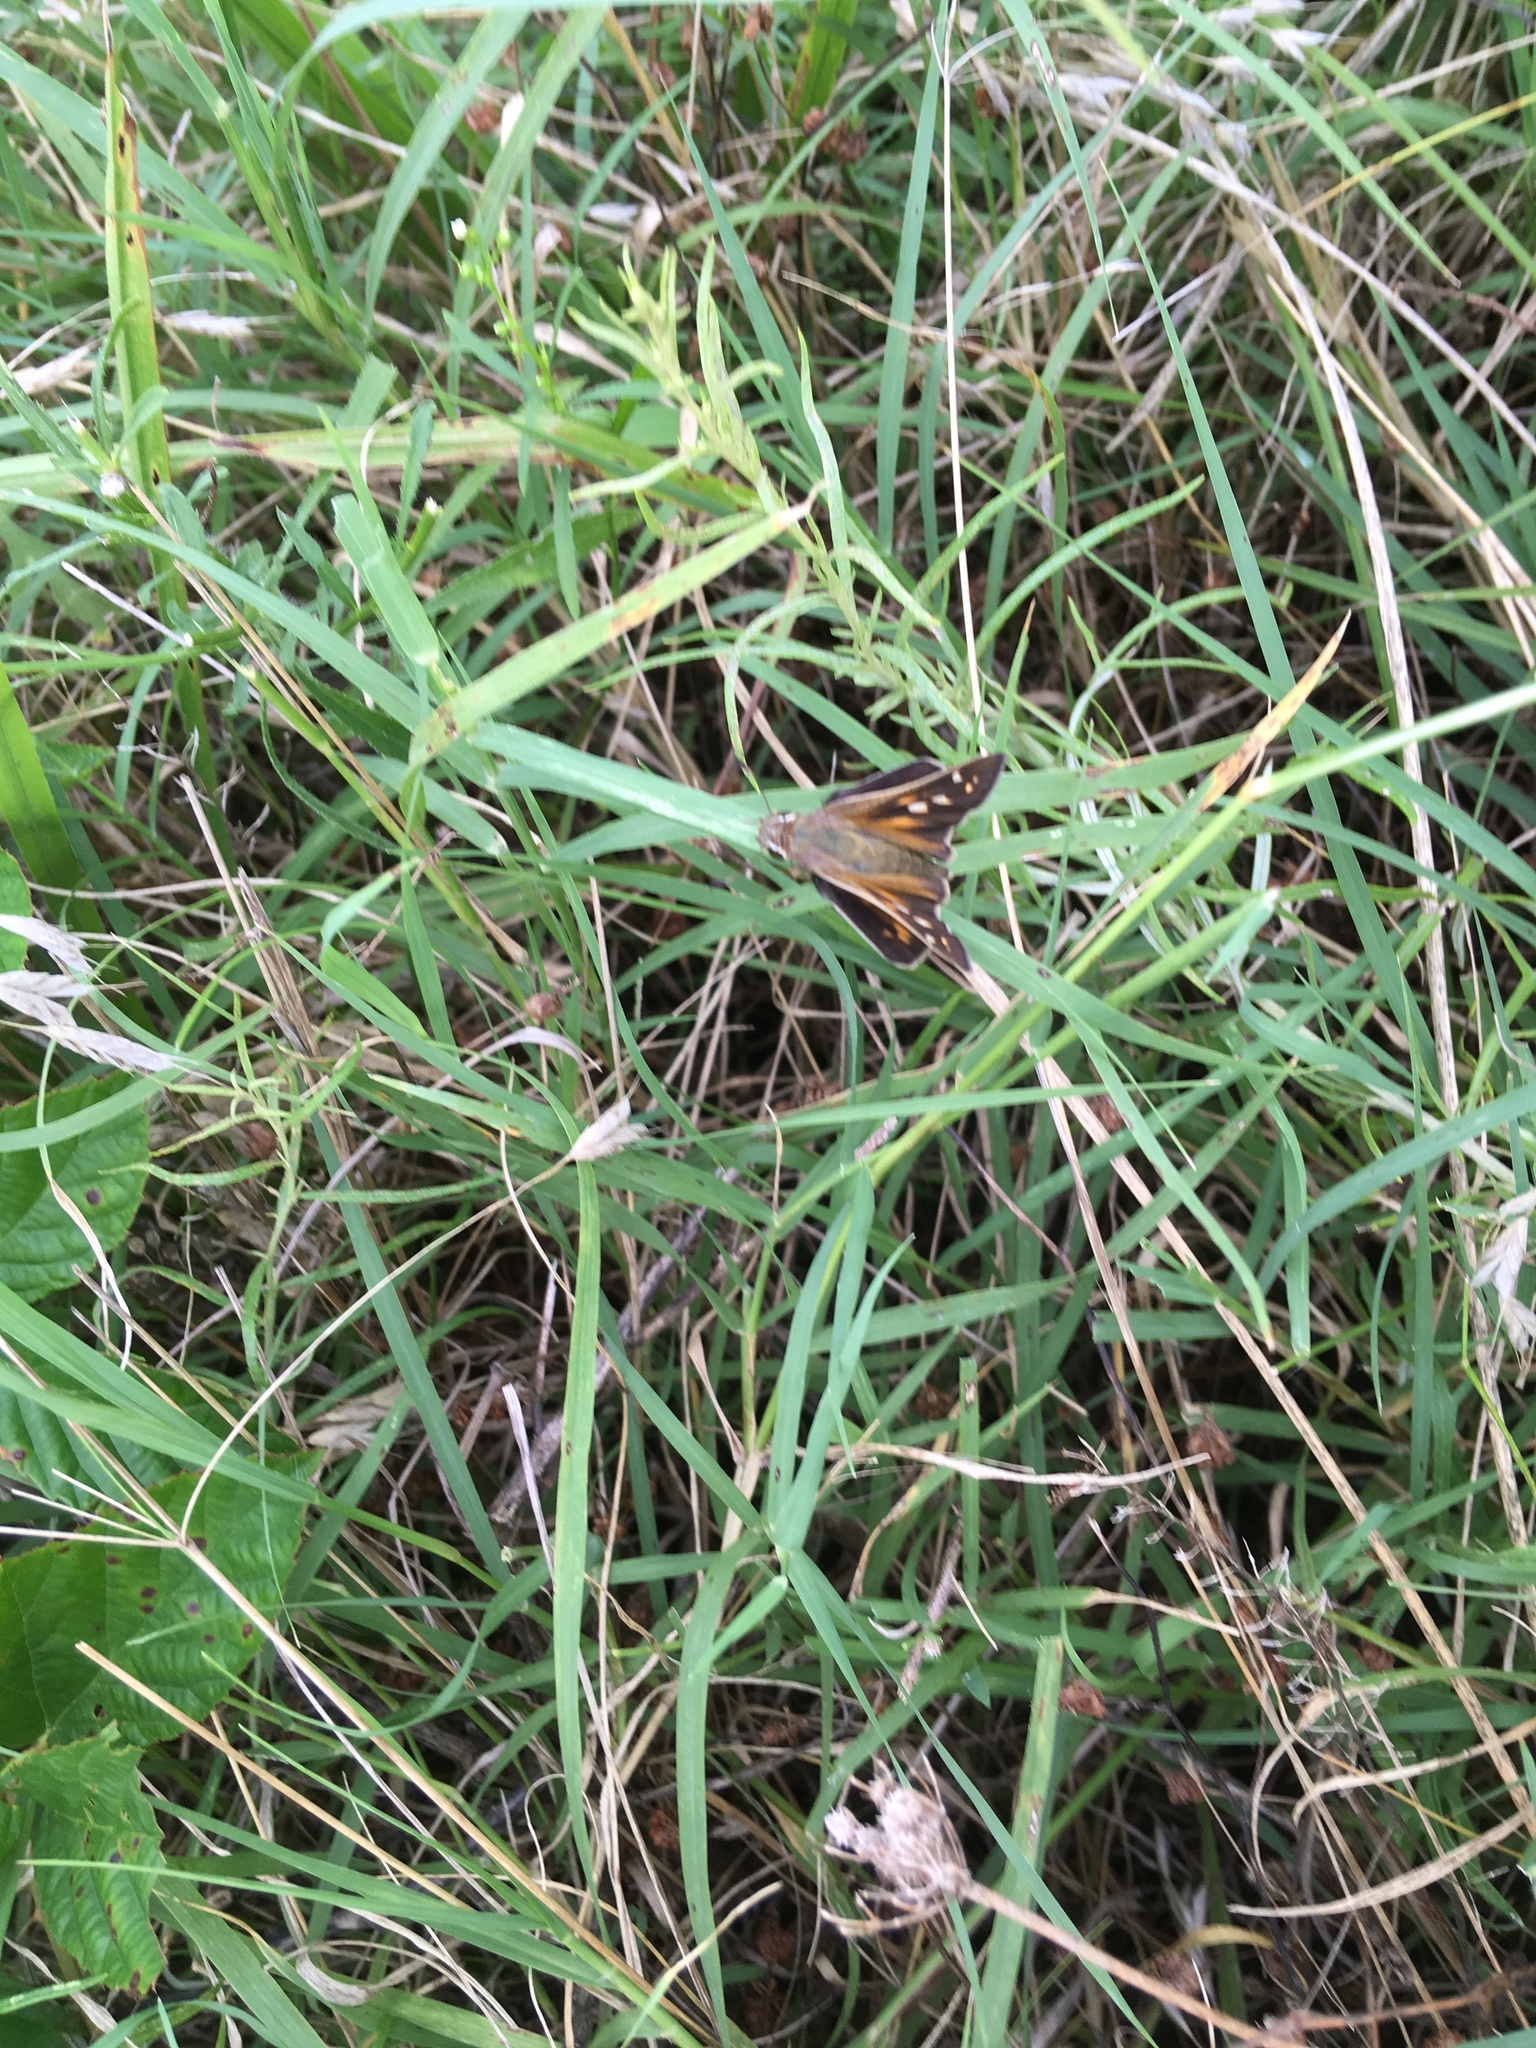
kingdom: Animalia
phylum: Arthropoda
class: Insecta
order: Lepidoptera
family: Hesperiidae
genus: Atalopedes
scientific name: Atalopedes
